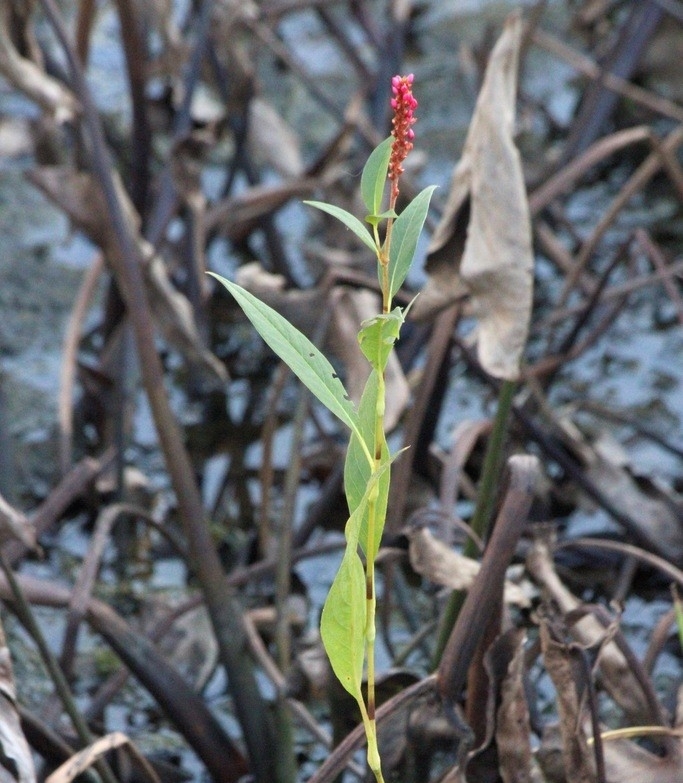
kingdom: Plantae
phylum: Tracheophyta
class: Magnoliopsida
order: Caryophyllales
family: Polygonaceae
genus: Persicaria
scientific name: Persicaria amphibia
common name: Amphibious bistort
